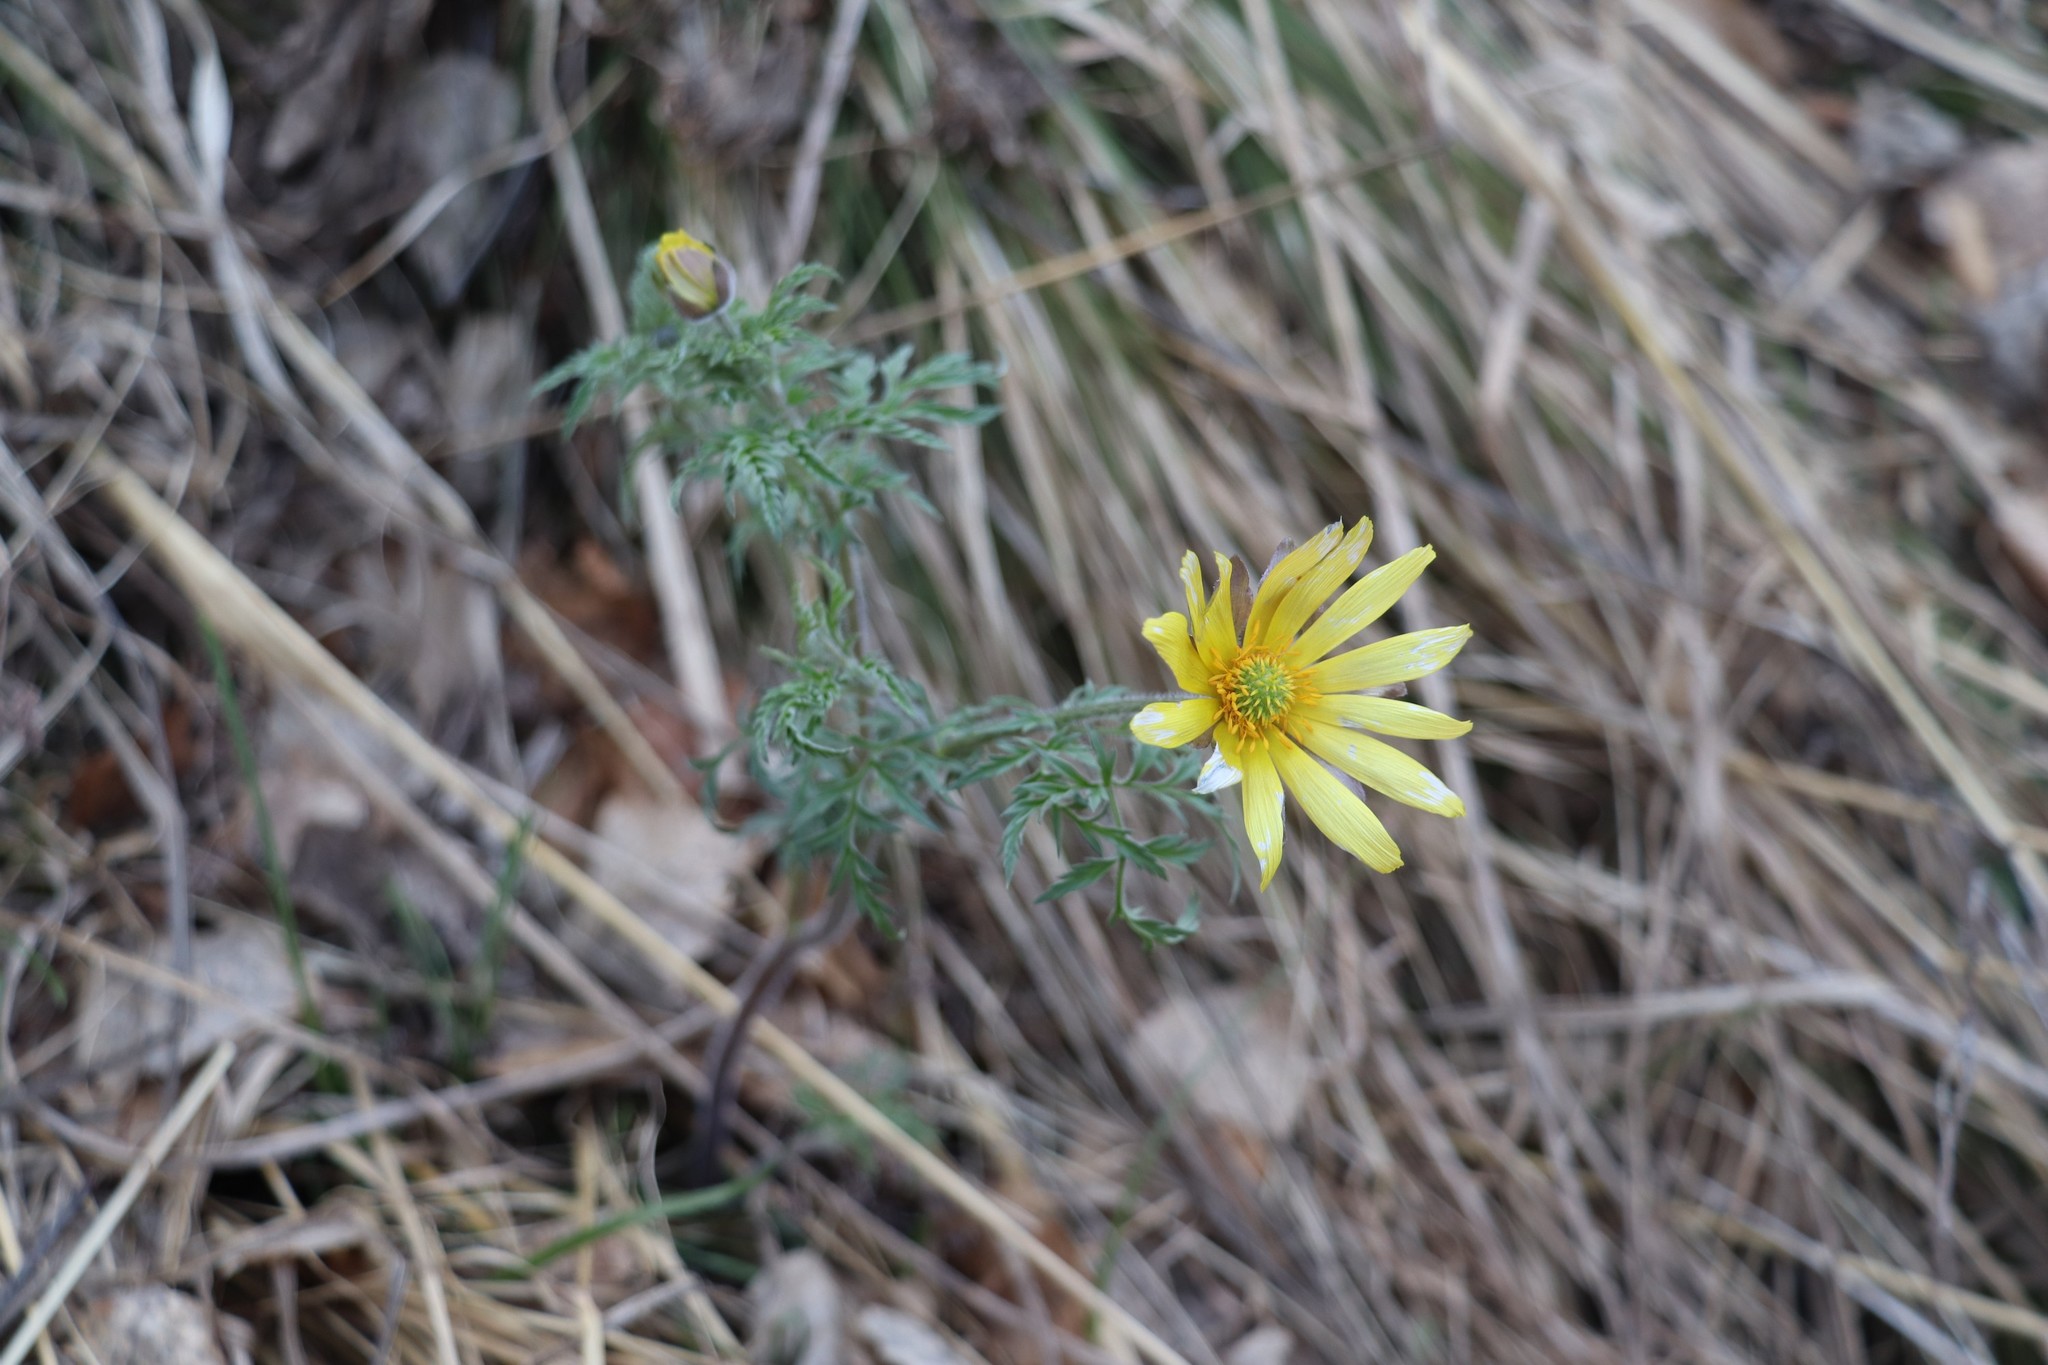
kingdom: Plantae
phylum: Tracheophyta
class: Magnoliopsida
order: Ranunculales
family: Ranunculaceae
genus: Adonis
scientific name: Adonis villosa
